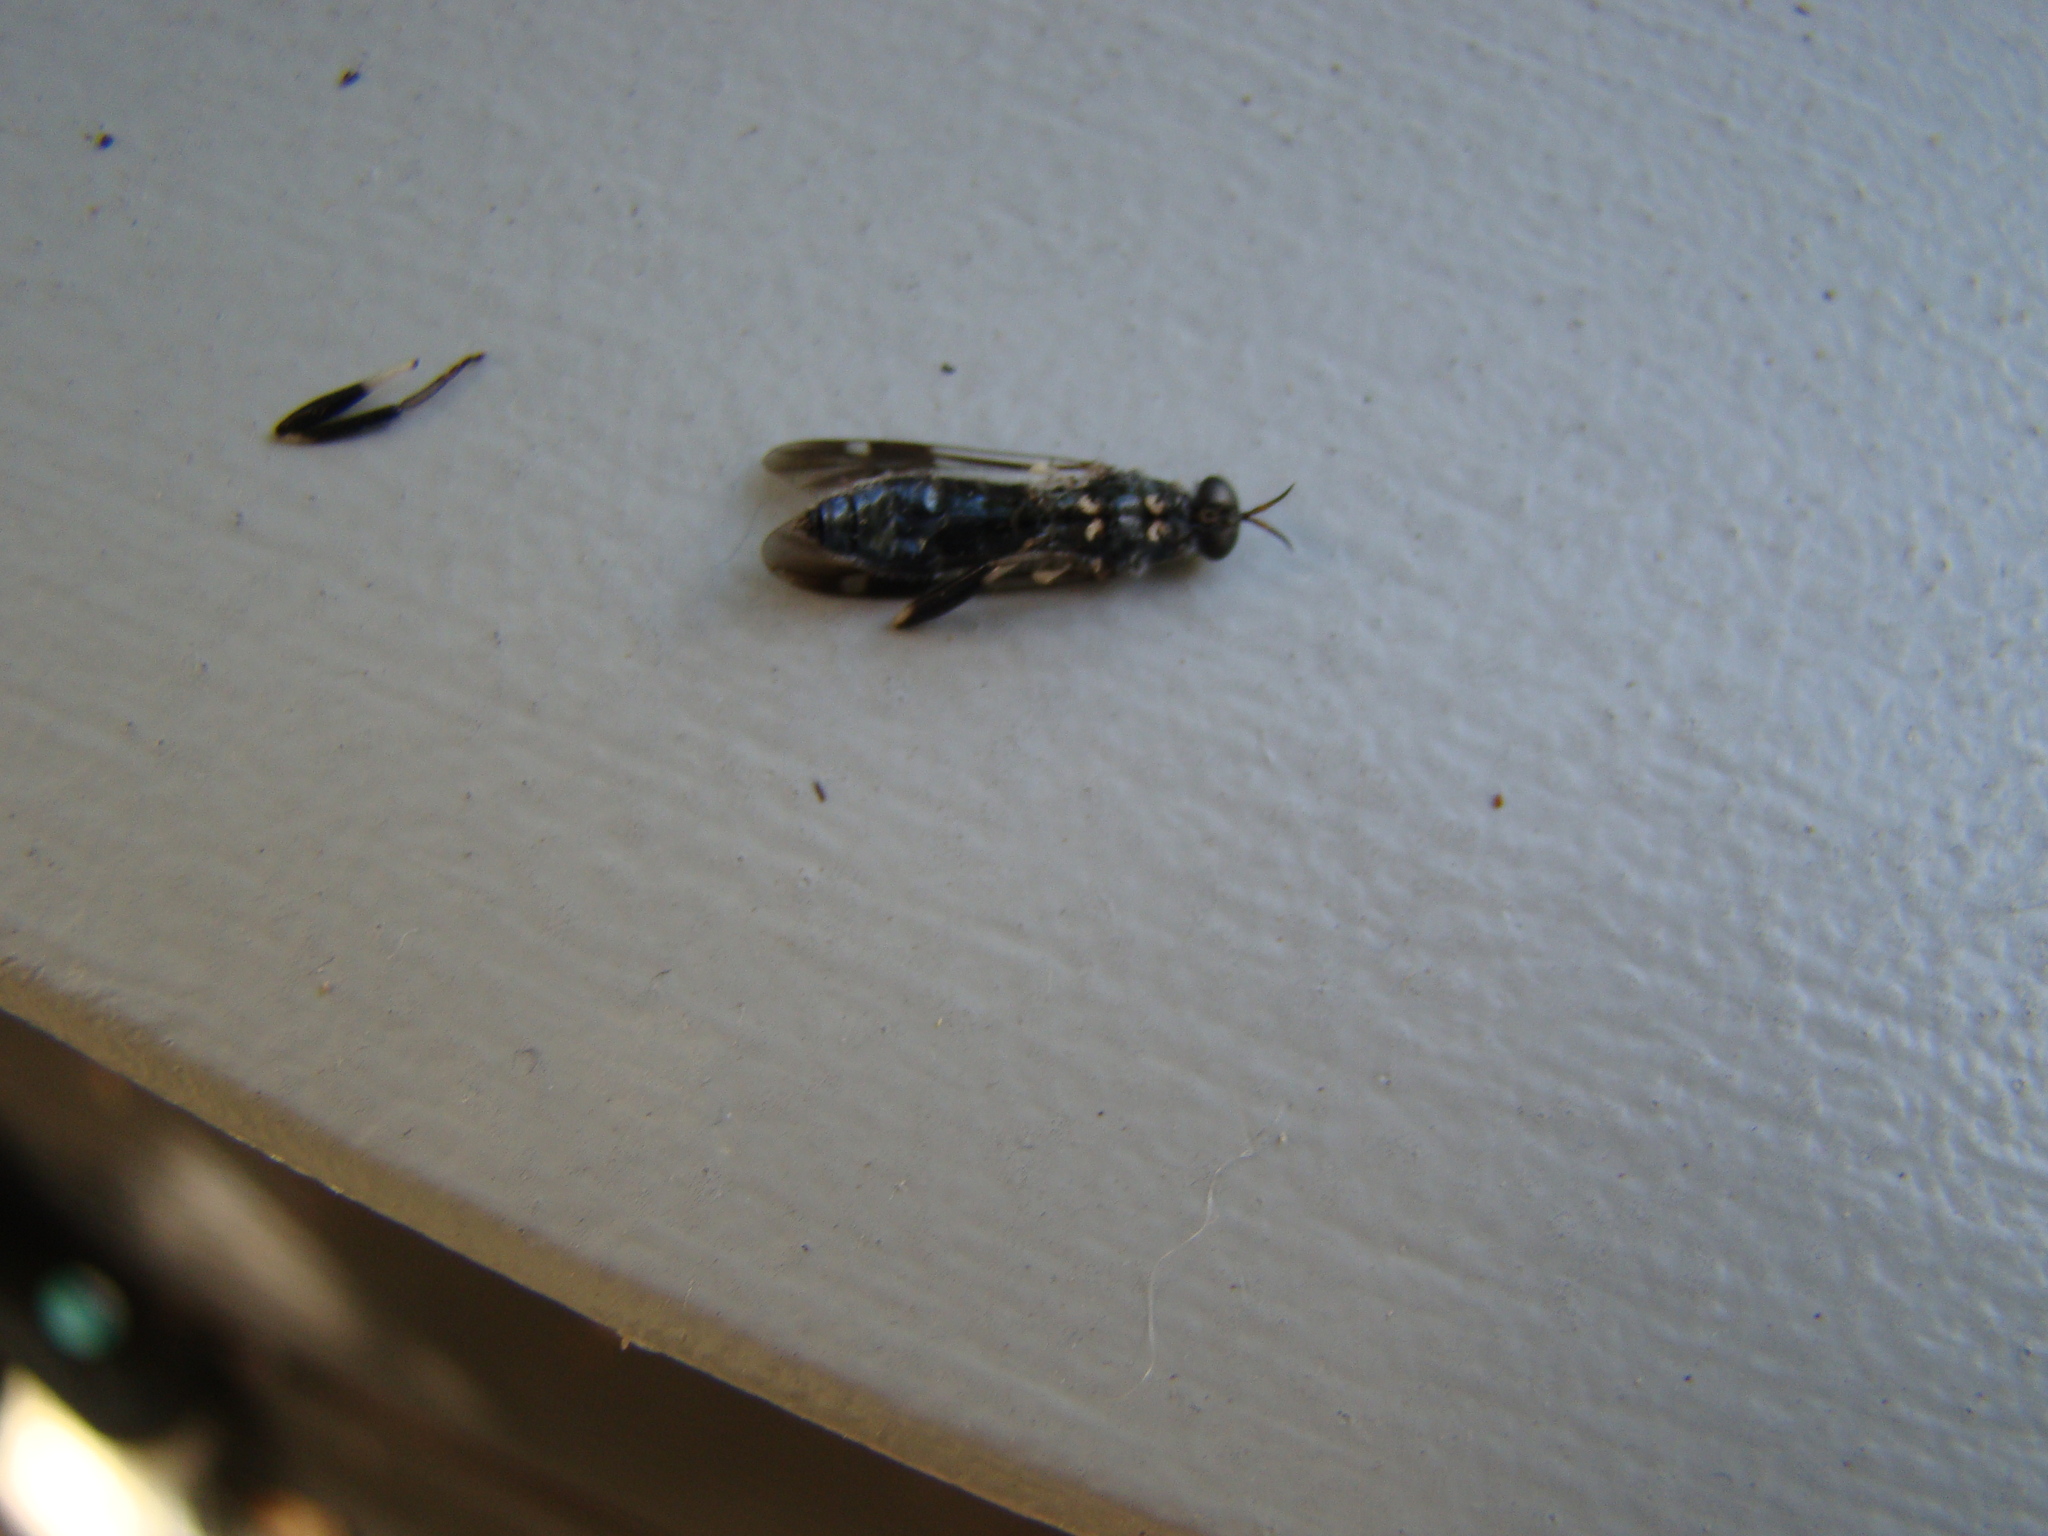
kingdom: Animalia
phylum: Arthropoda
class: Insecta
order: Diptera
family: Stratiomyidae
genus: Exaireta
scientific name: Exaireta spinigera
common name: Blue soldier fly
